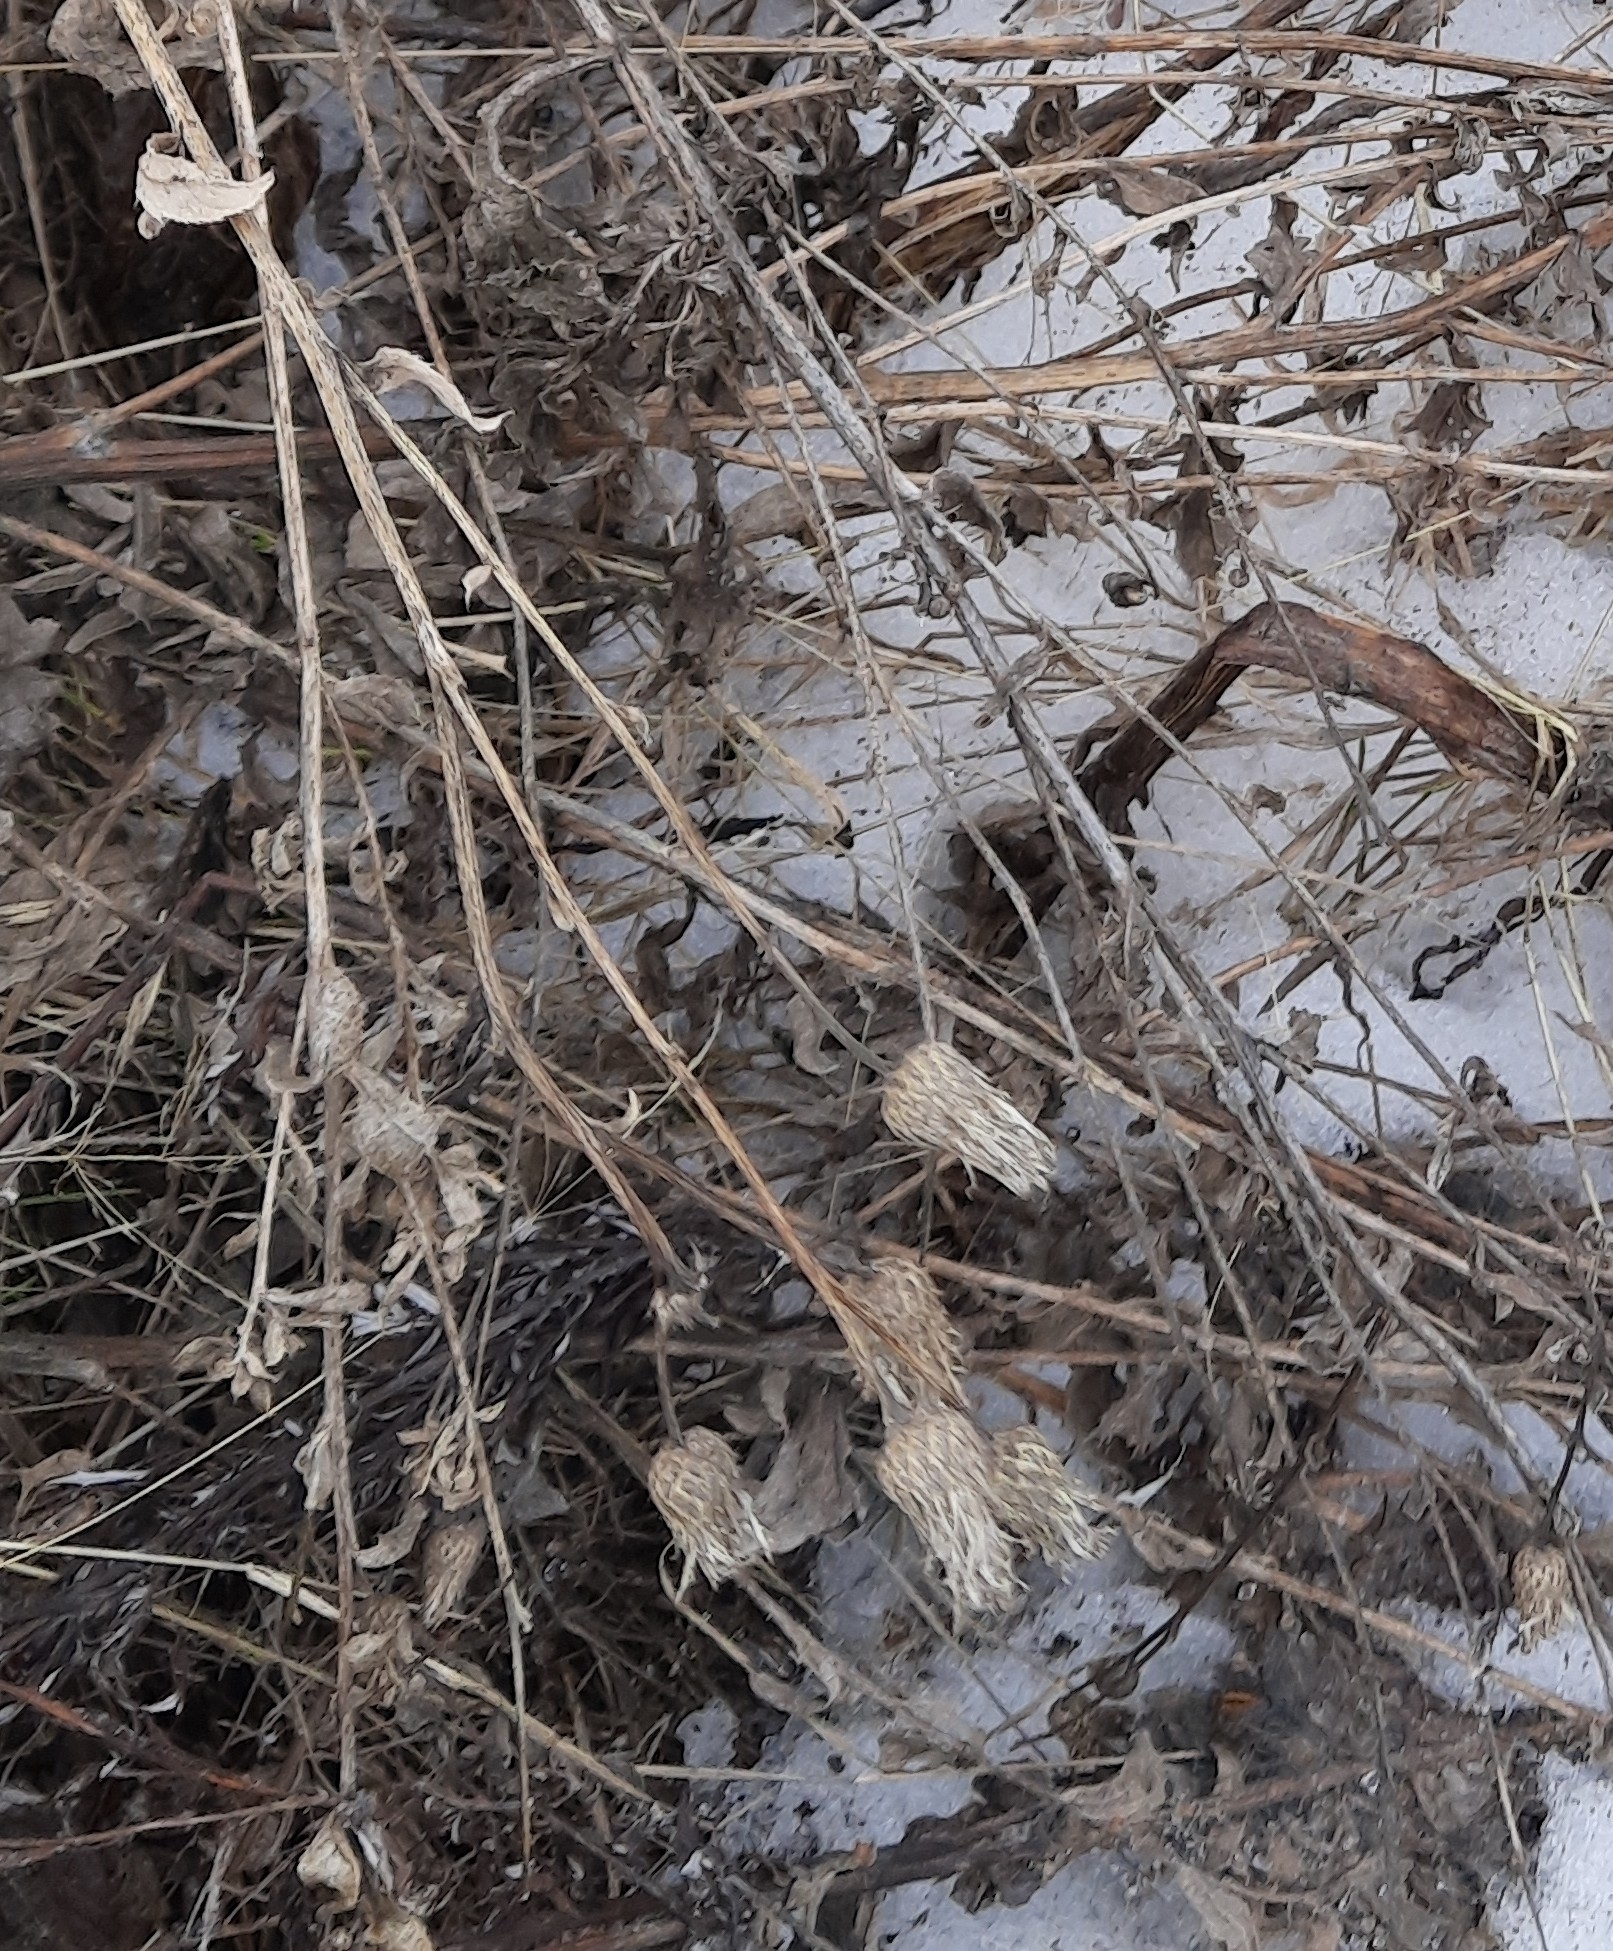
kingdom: Plantae
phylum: Tracheophyta
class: Magnoliopsida
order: Asterales
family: Asteraceae
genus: Cirsium
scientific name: Cirsium arvense
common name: Creeping thistle
